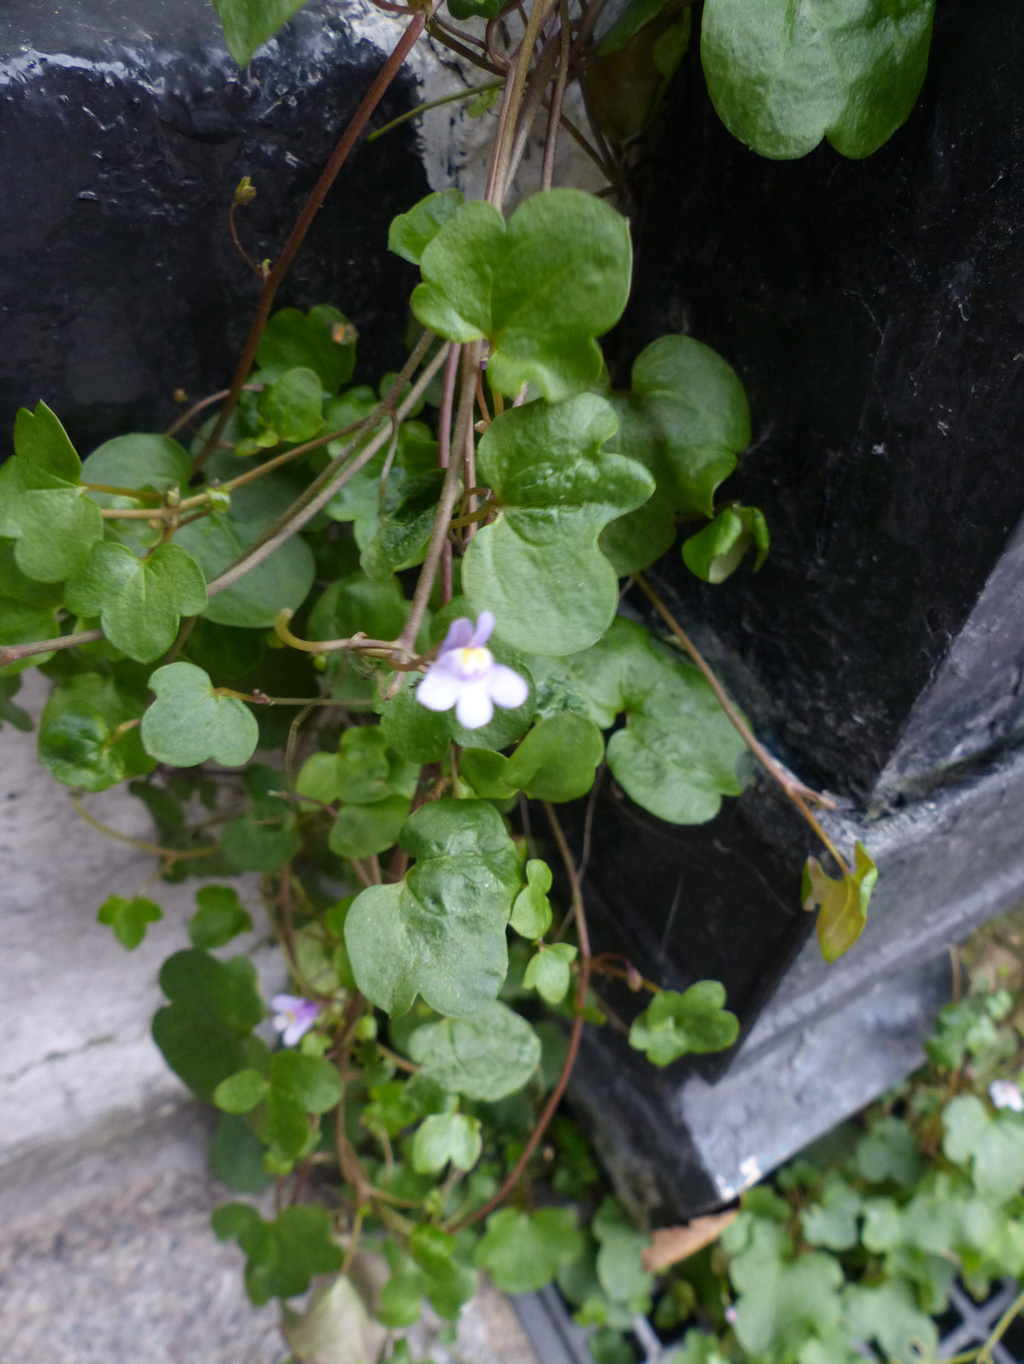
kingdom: Plantae
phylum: Tracheophyta
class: Magnoliopsida
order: Lamiales
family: Plantaginaceae
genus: Cymbalaria
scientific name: Cymbalaria muralis
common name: Ivy-leaved toadflax
